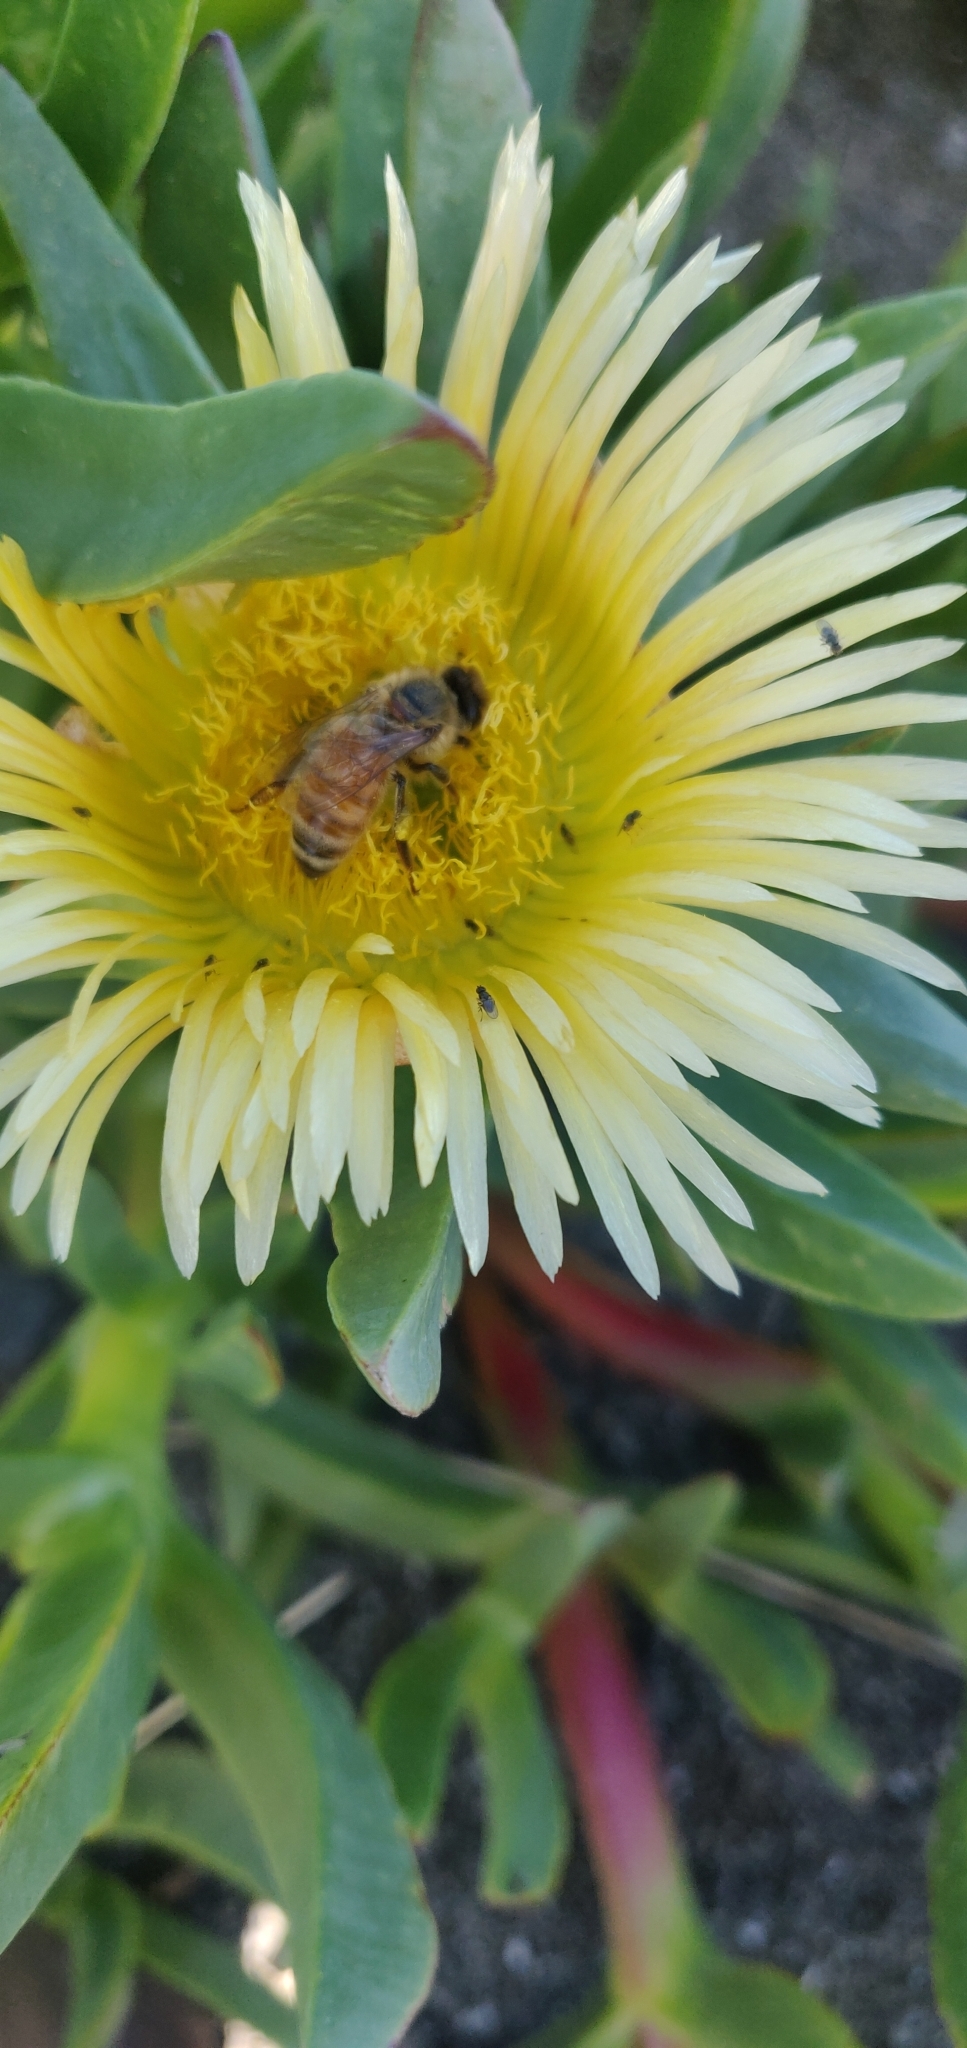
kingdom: Animalia
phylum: Arthropoda
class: Insecta
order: Hymenoptera
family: Apidae
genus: Apis
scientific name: Apis mellifera
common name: Honey bee
